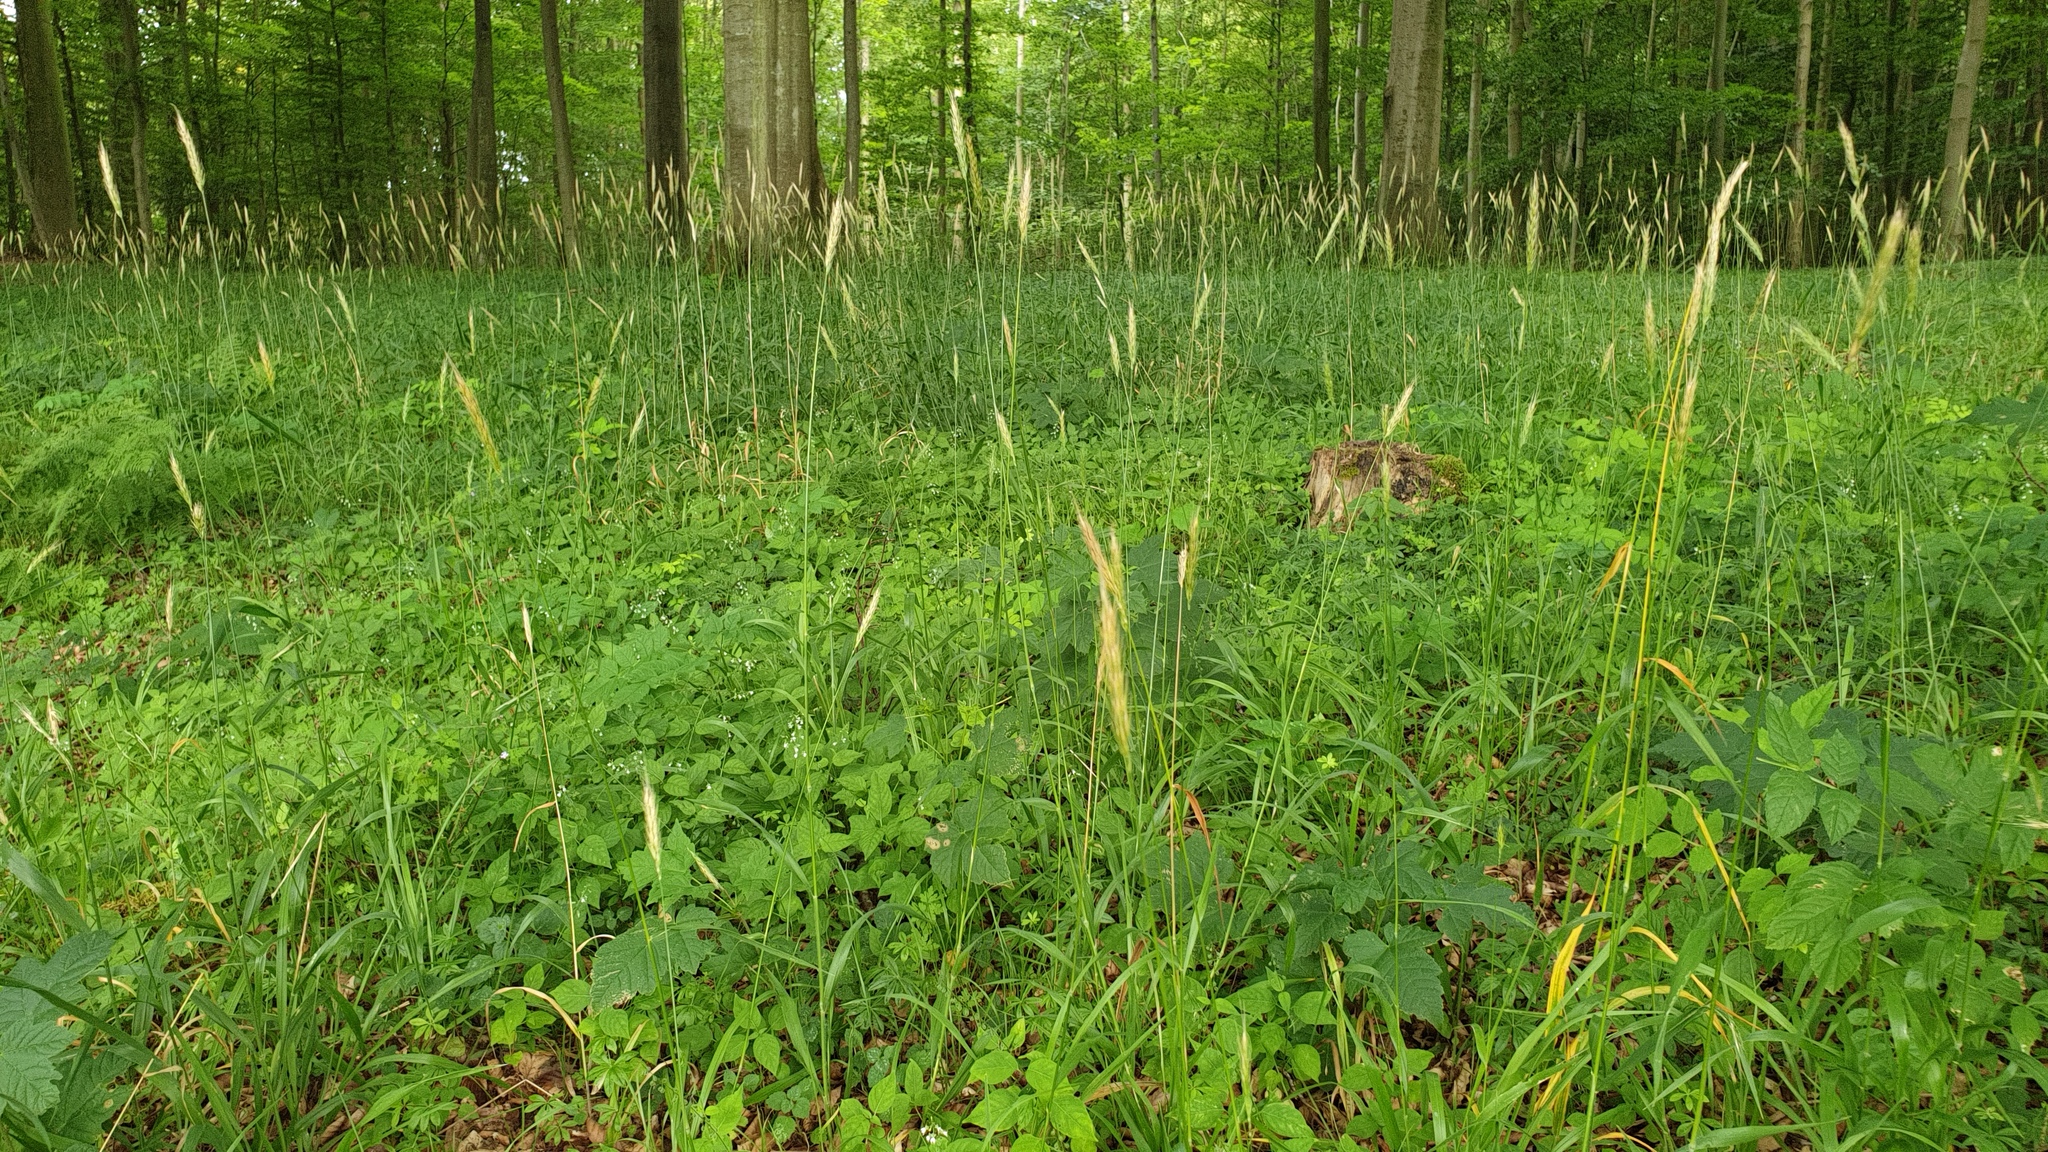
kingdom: Plantae
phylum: Tracheophyta
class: Liliopsida
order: Poales
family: Poaceae
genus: Hordelymus
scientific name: Hordelymus europaeus
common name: Wood-barley
